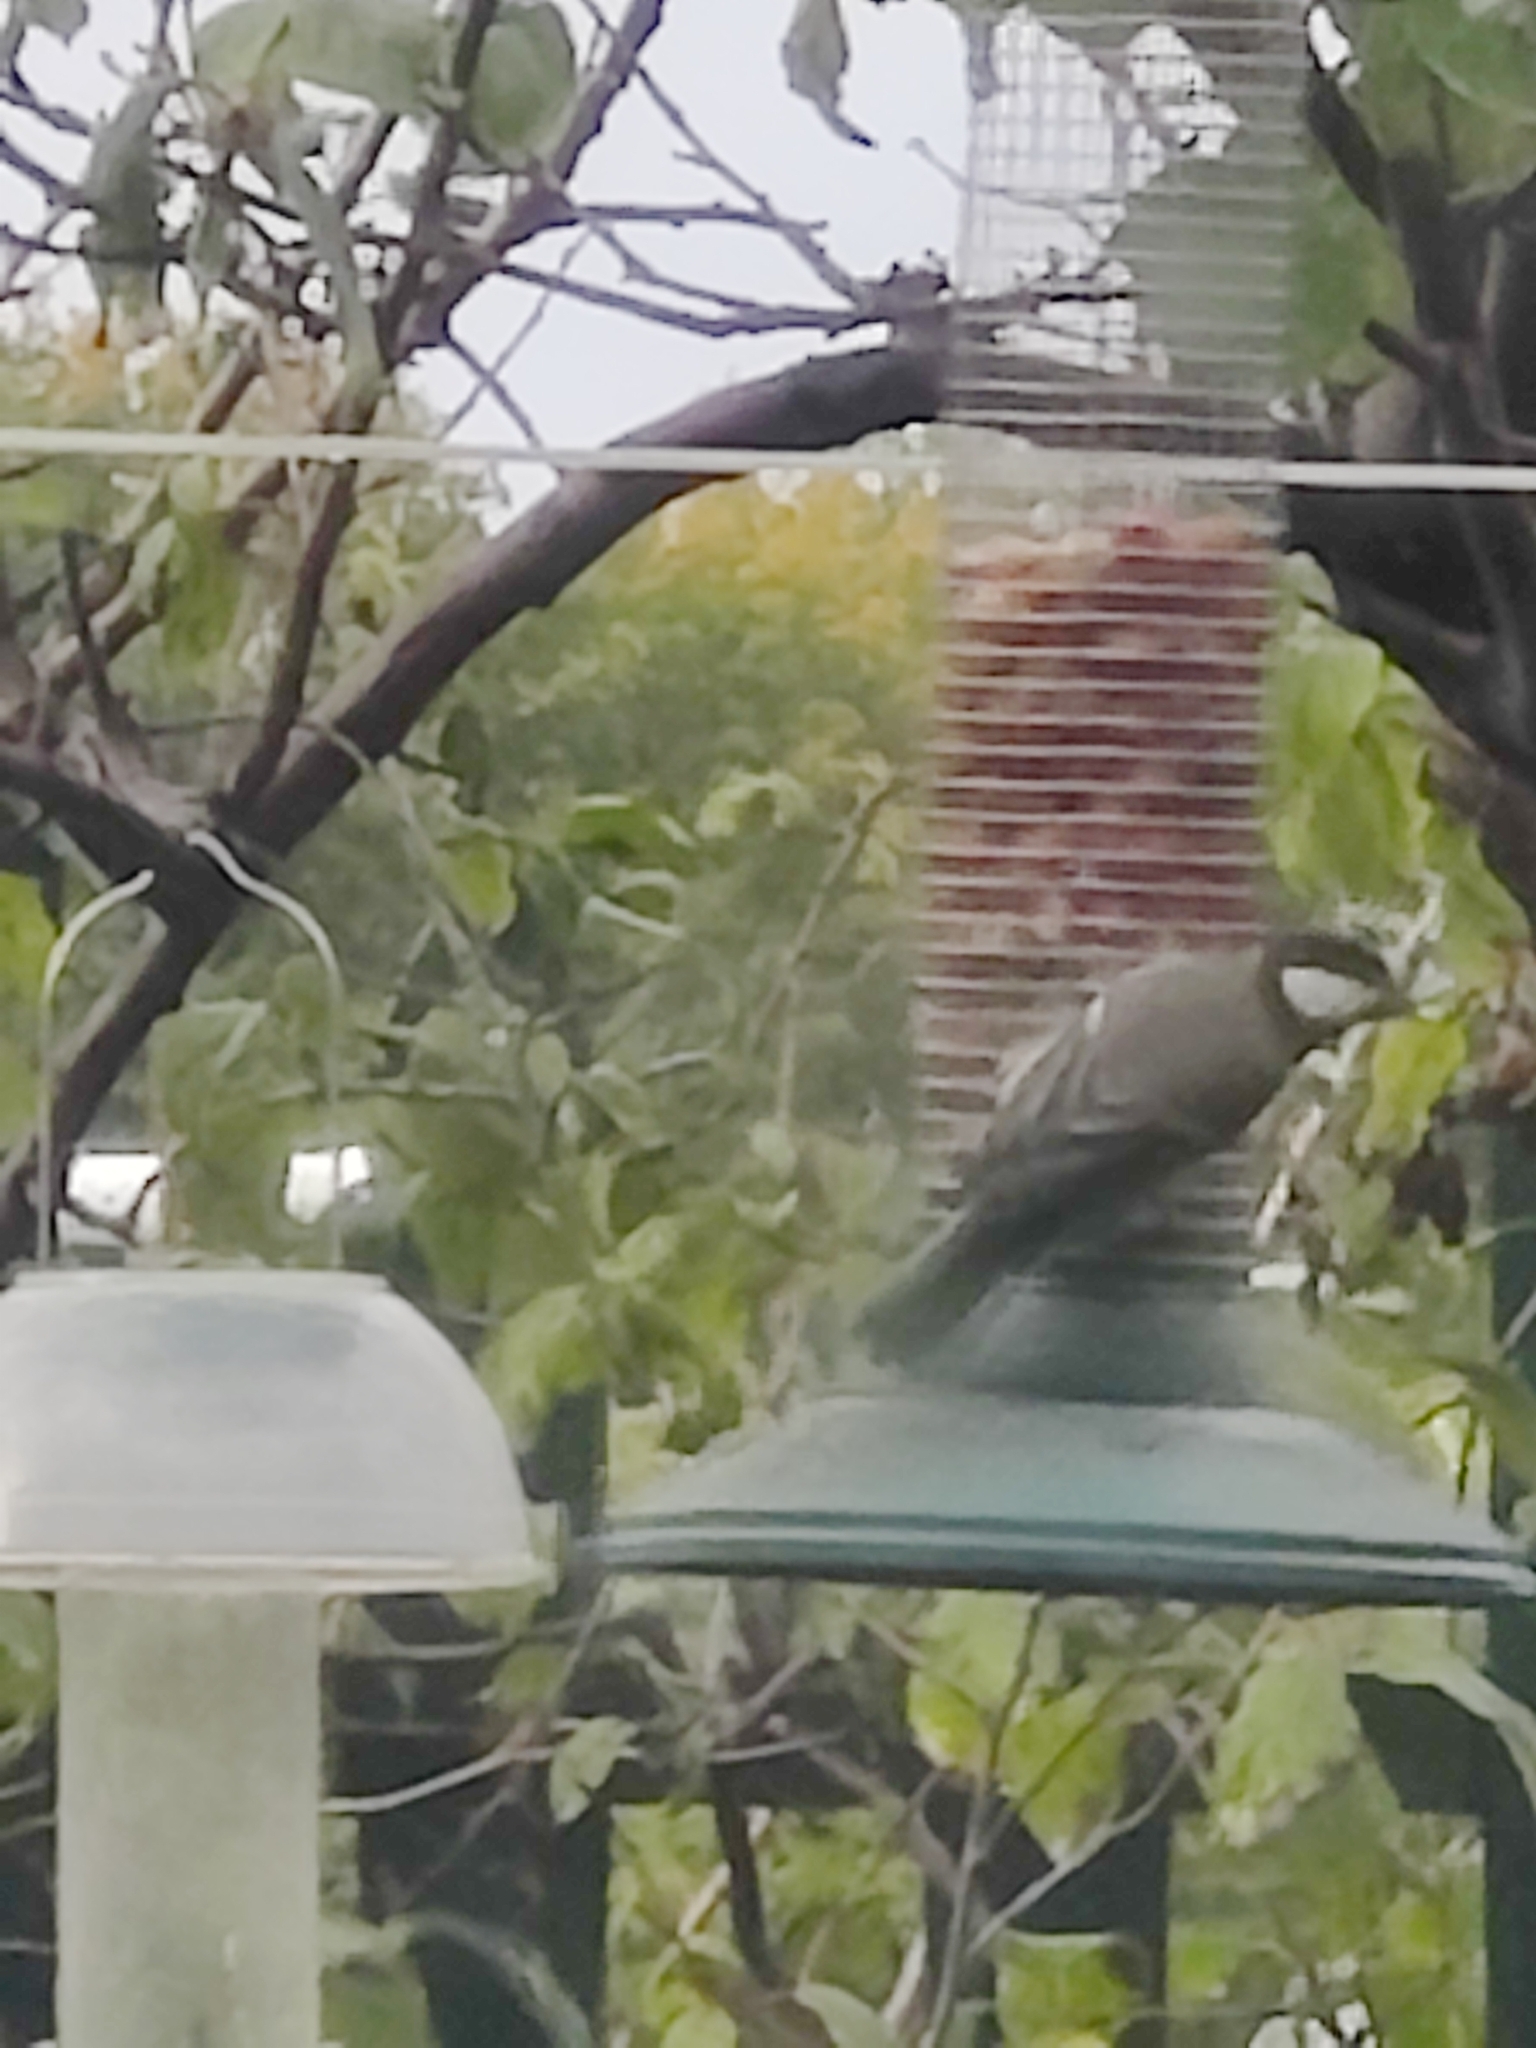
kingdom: Animalia
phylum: Chordata
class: Aves
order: Passeriformes
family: Paridae
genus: Parus
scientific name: Parus major
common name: Great tit
